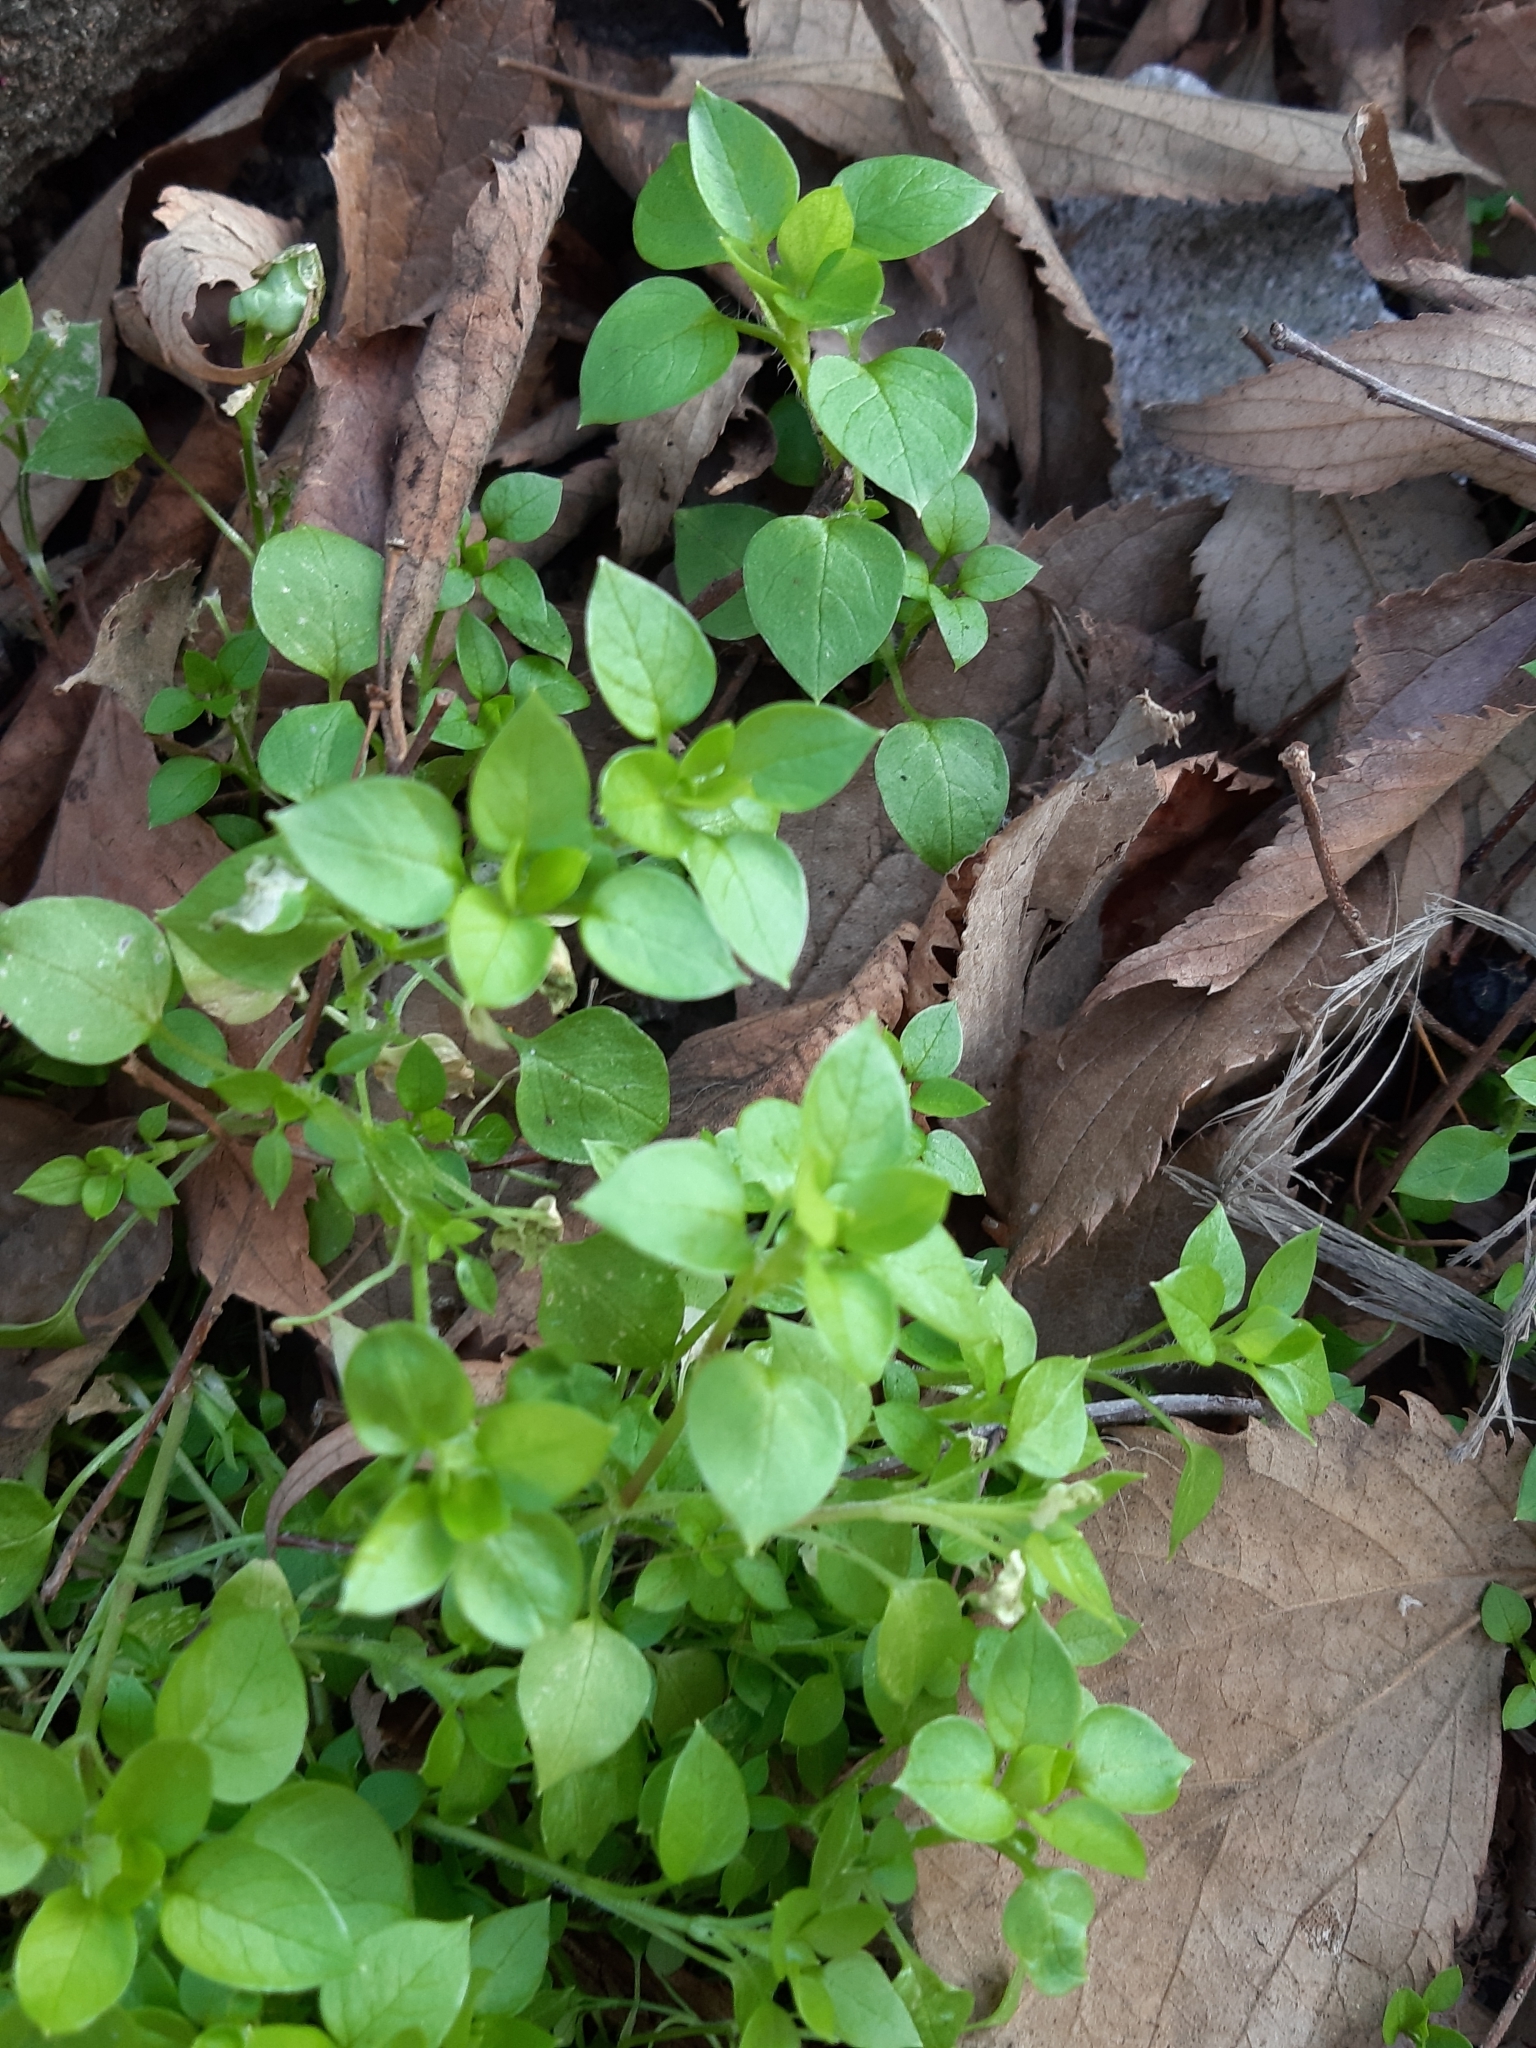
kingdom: Plantae
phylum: Tracheophyta
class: Magnoliopsida
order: Caryophyllales
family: Caryophyllaceae
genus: Stellaria
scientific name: Stellaria media
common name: Common chickweed
